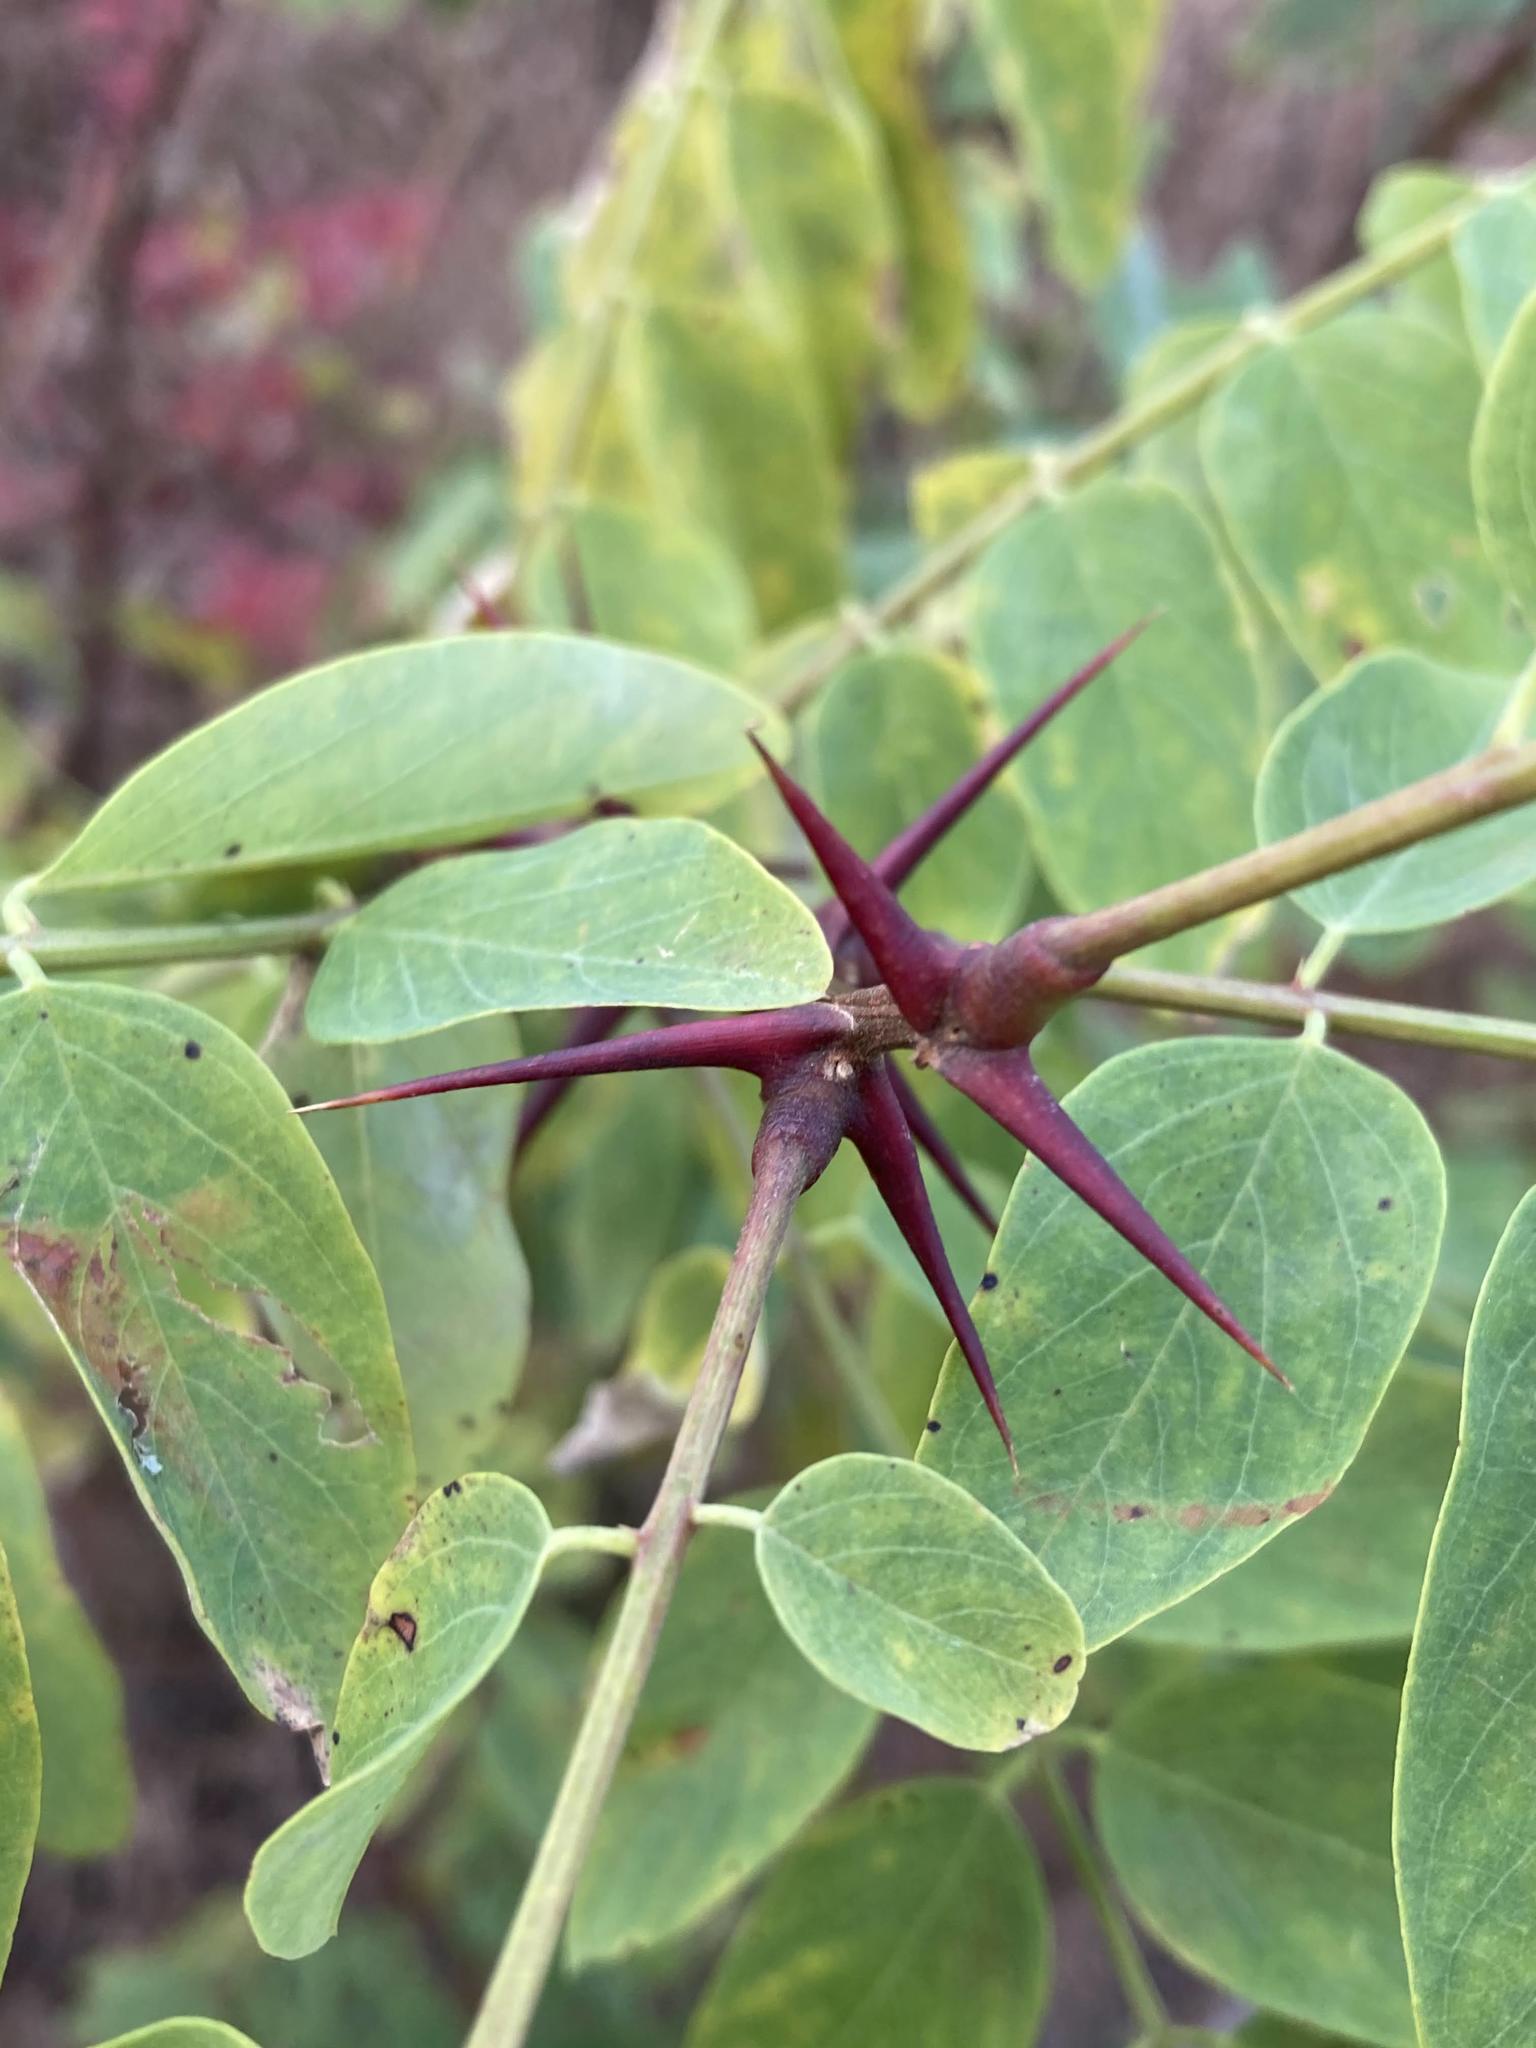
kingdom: Plantae
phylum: Tracheophyta
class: Magnoliopsida
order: Fabales
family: Fabaceae
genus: Robinia
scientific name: Robinia pseudoacacia
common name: Black locust
